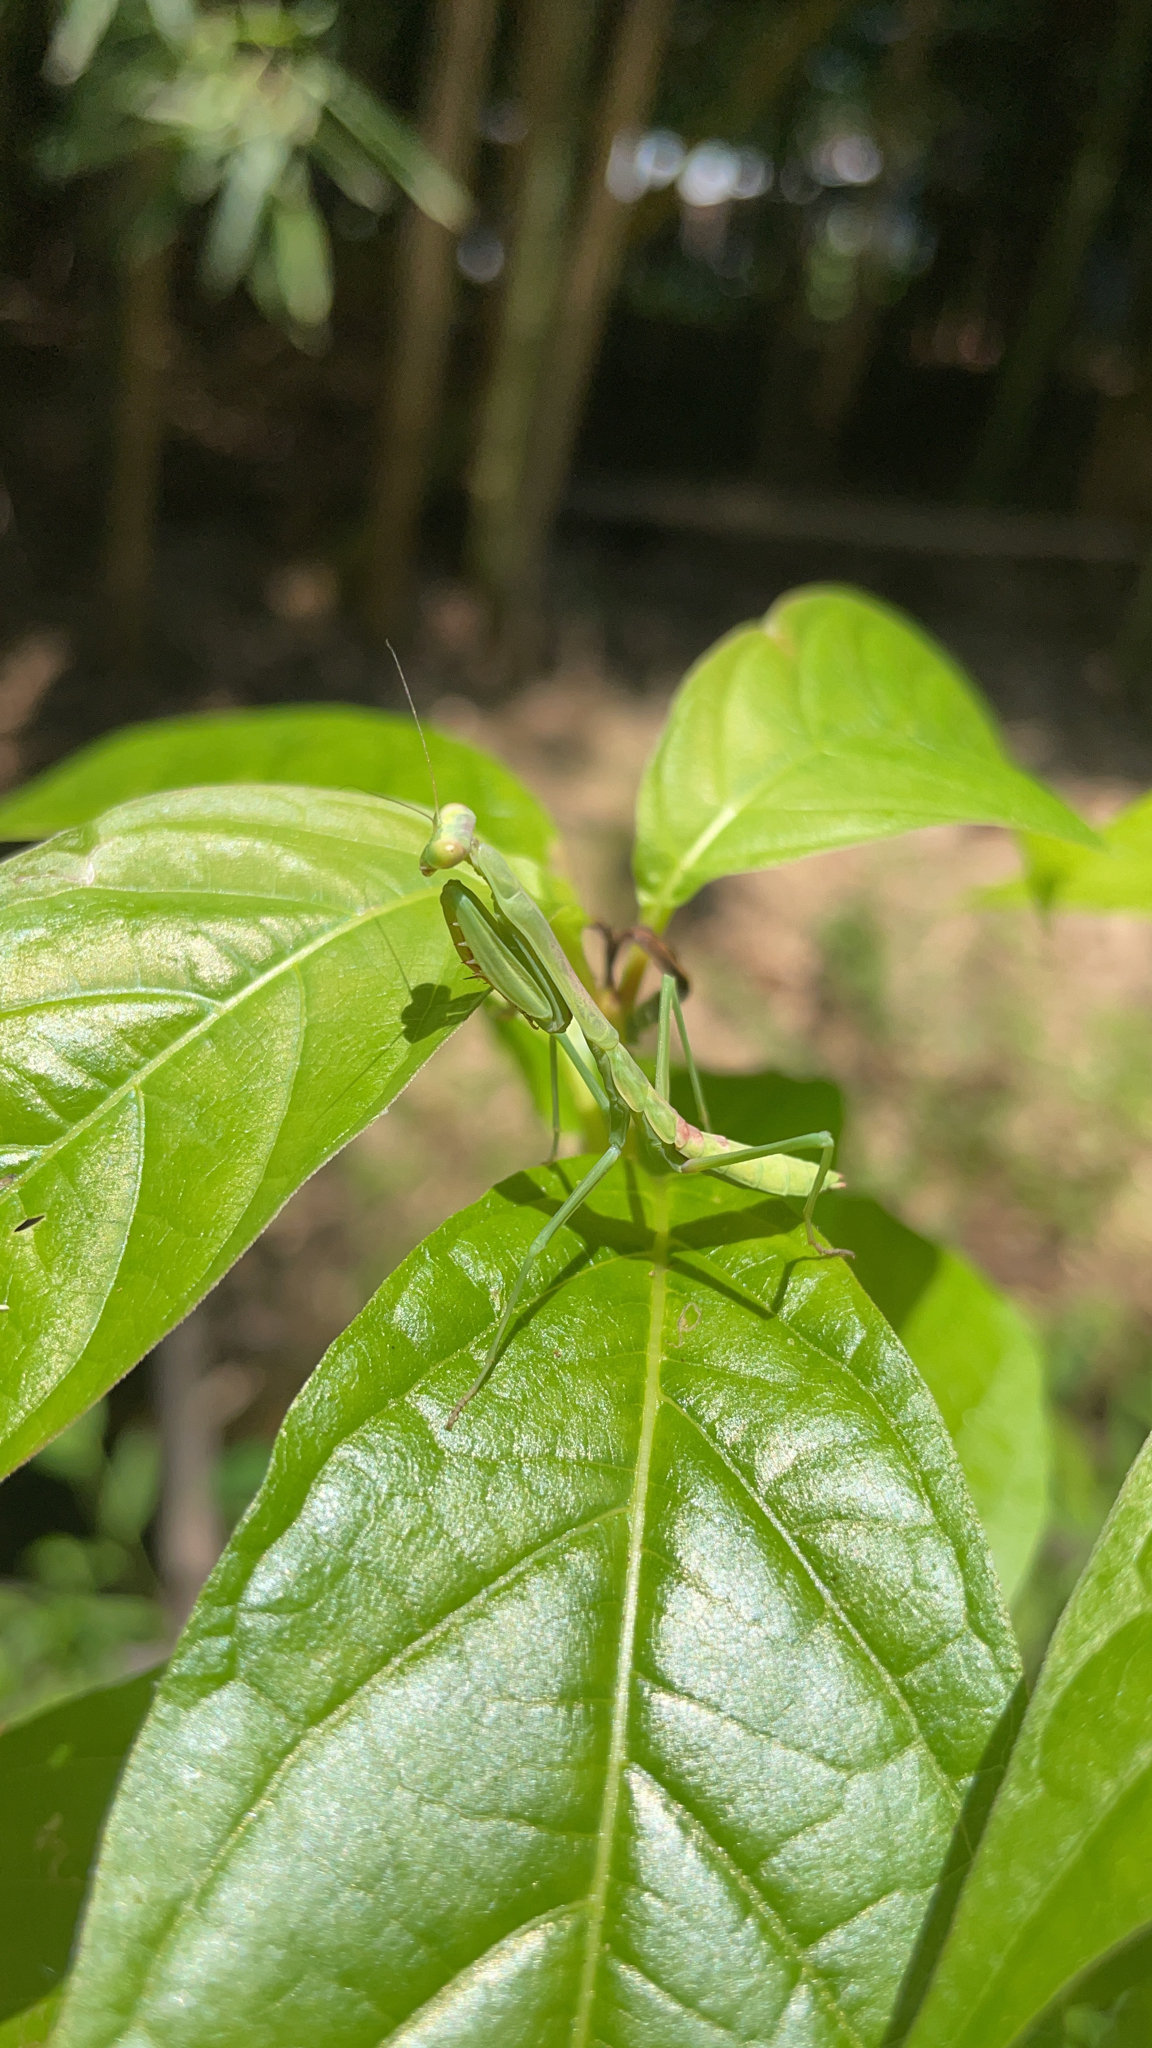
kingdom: Animalia
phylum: Arthropoda
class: Insecta
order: Mantodea
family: Mantidae
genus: Stagmomantis
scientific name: Stagmomantis carolina
